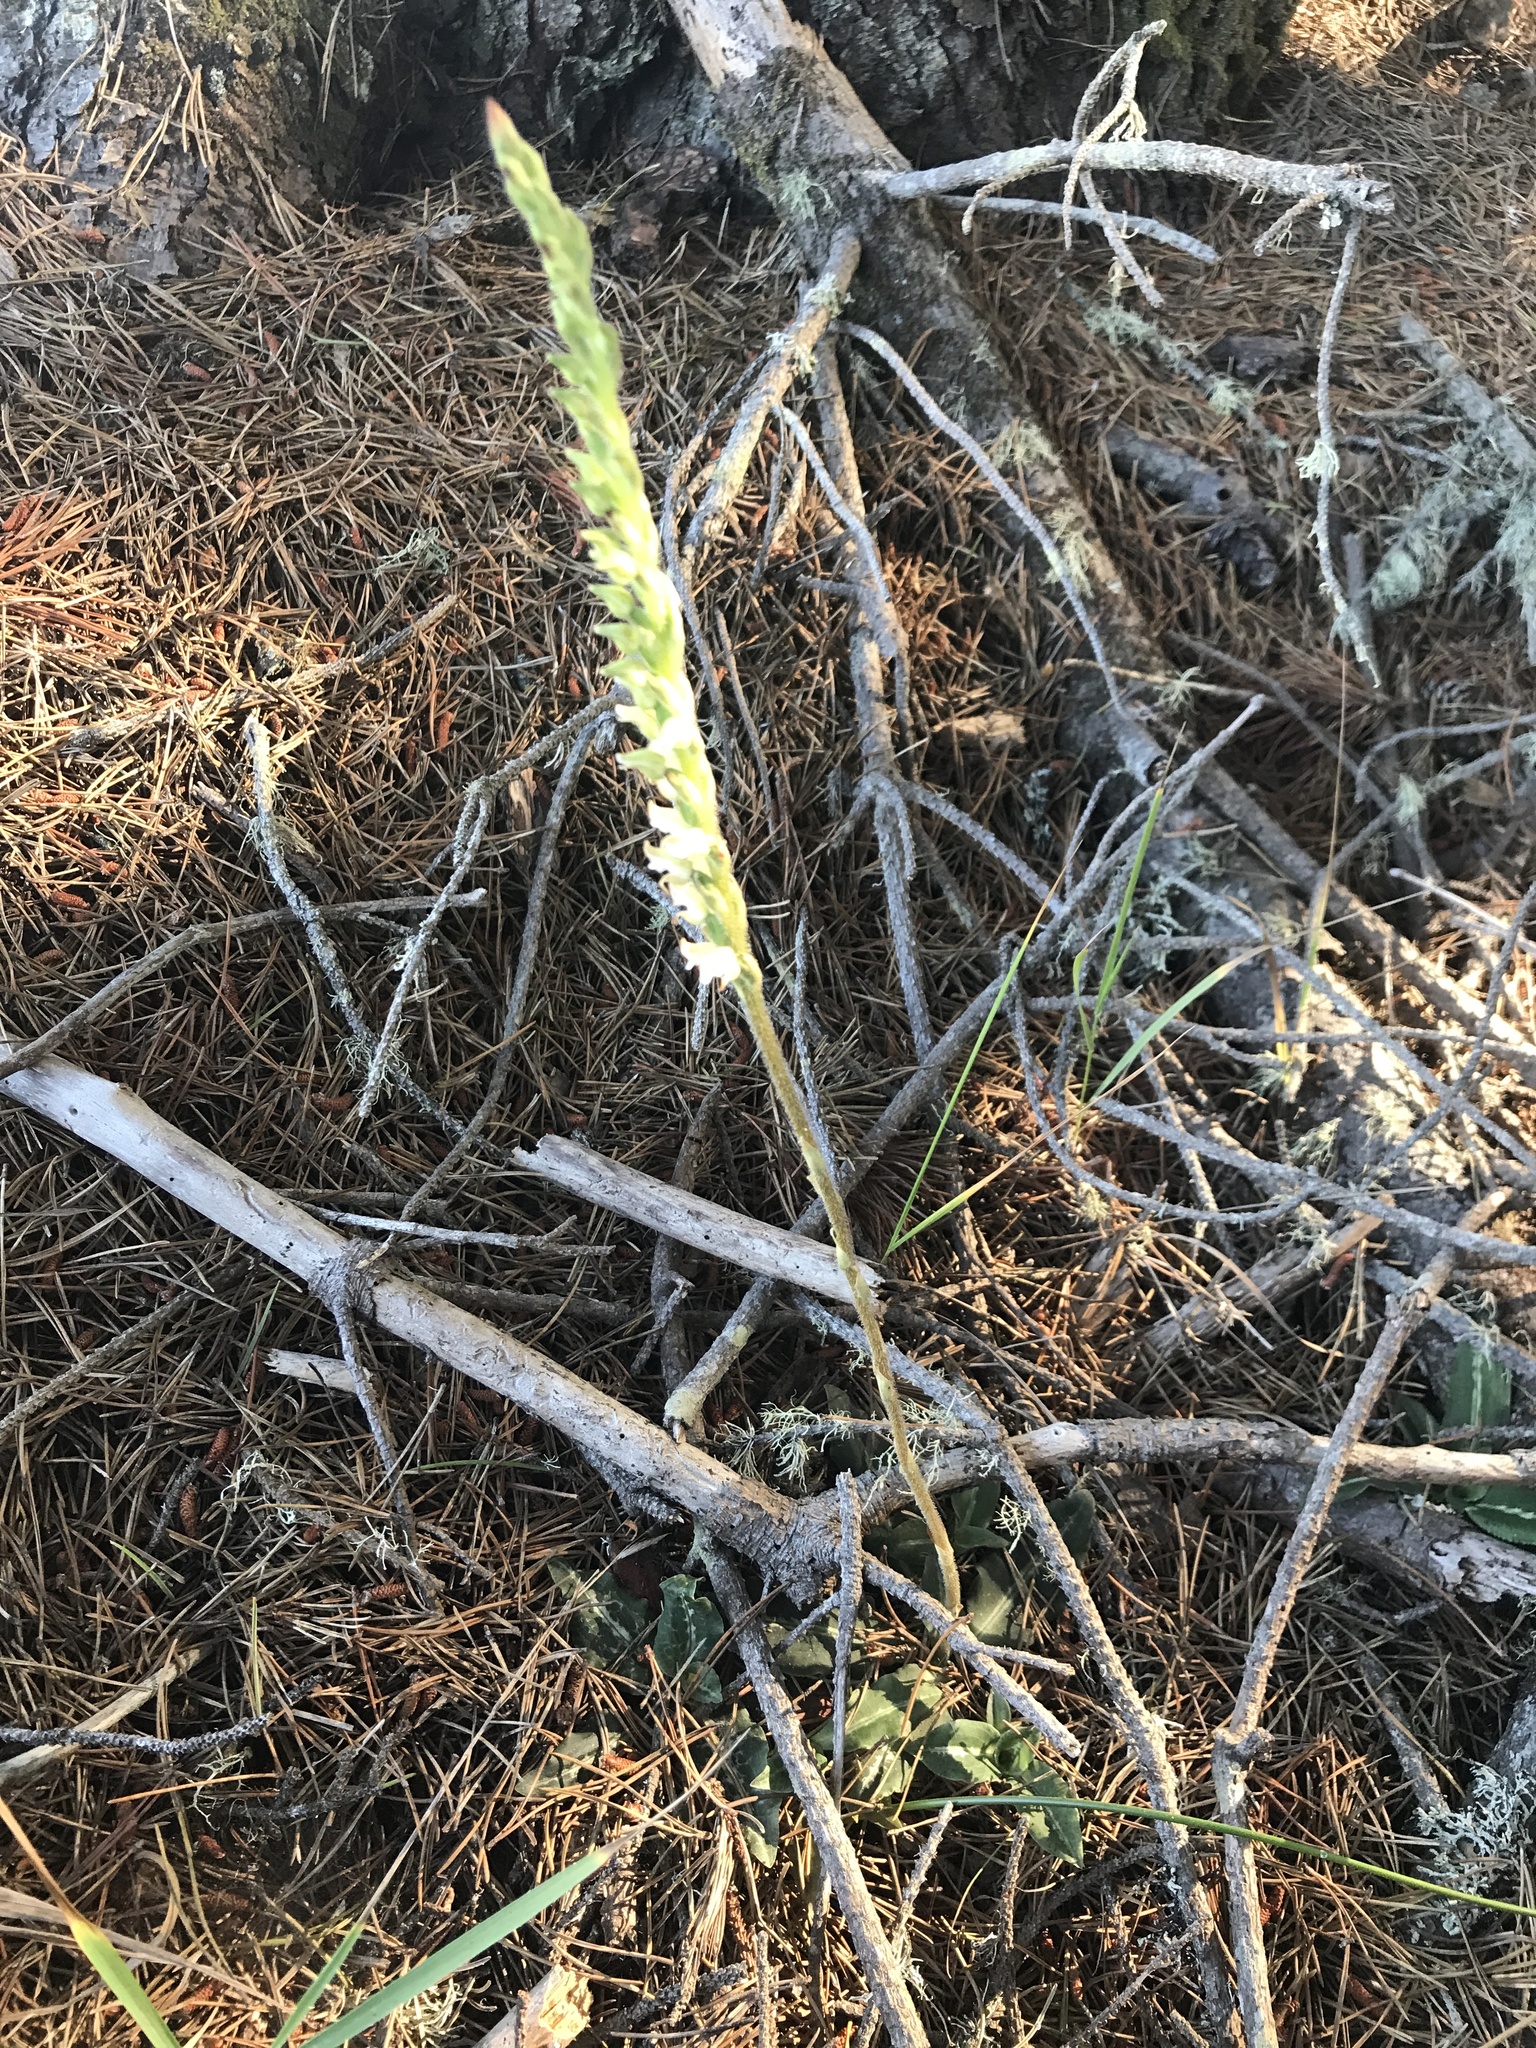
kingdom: Plantae
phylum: Tracheophyta
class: Liliopsida
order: Asparagales
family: Orchidaceae
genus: Goodyera
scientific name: Goodyera oblongifolia
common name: Giant rattlesnake-plantain
